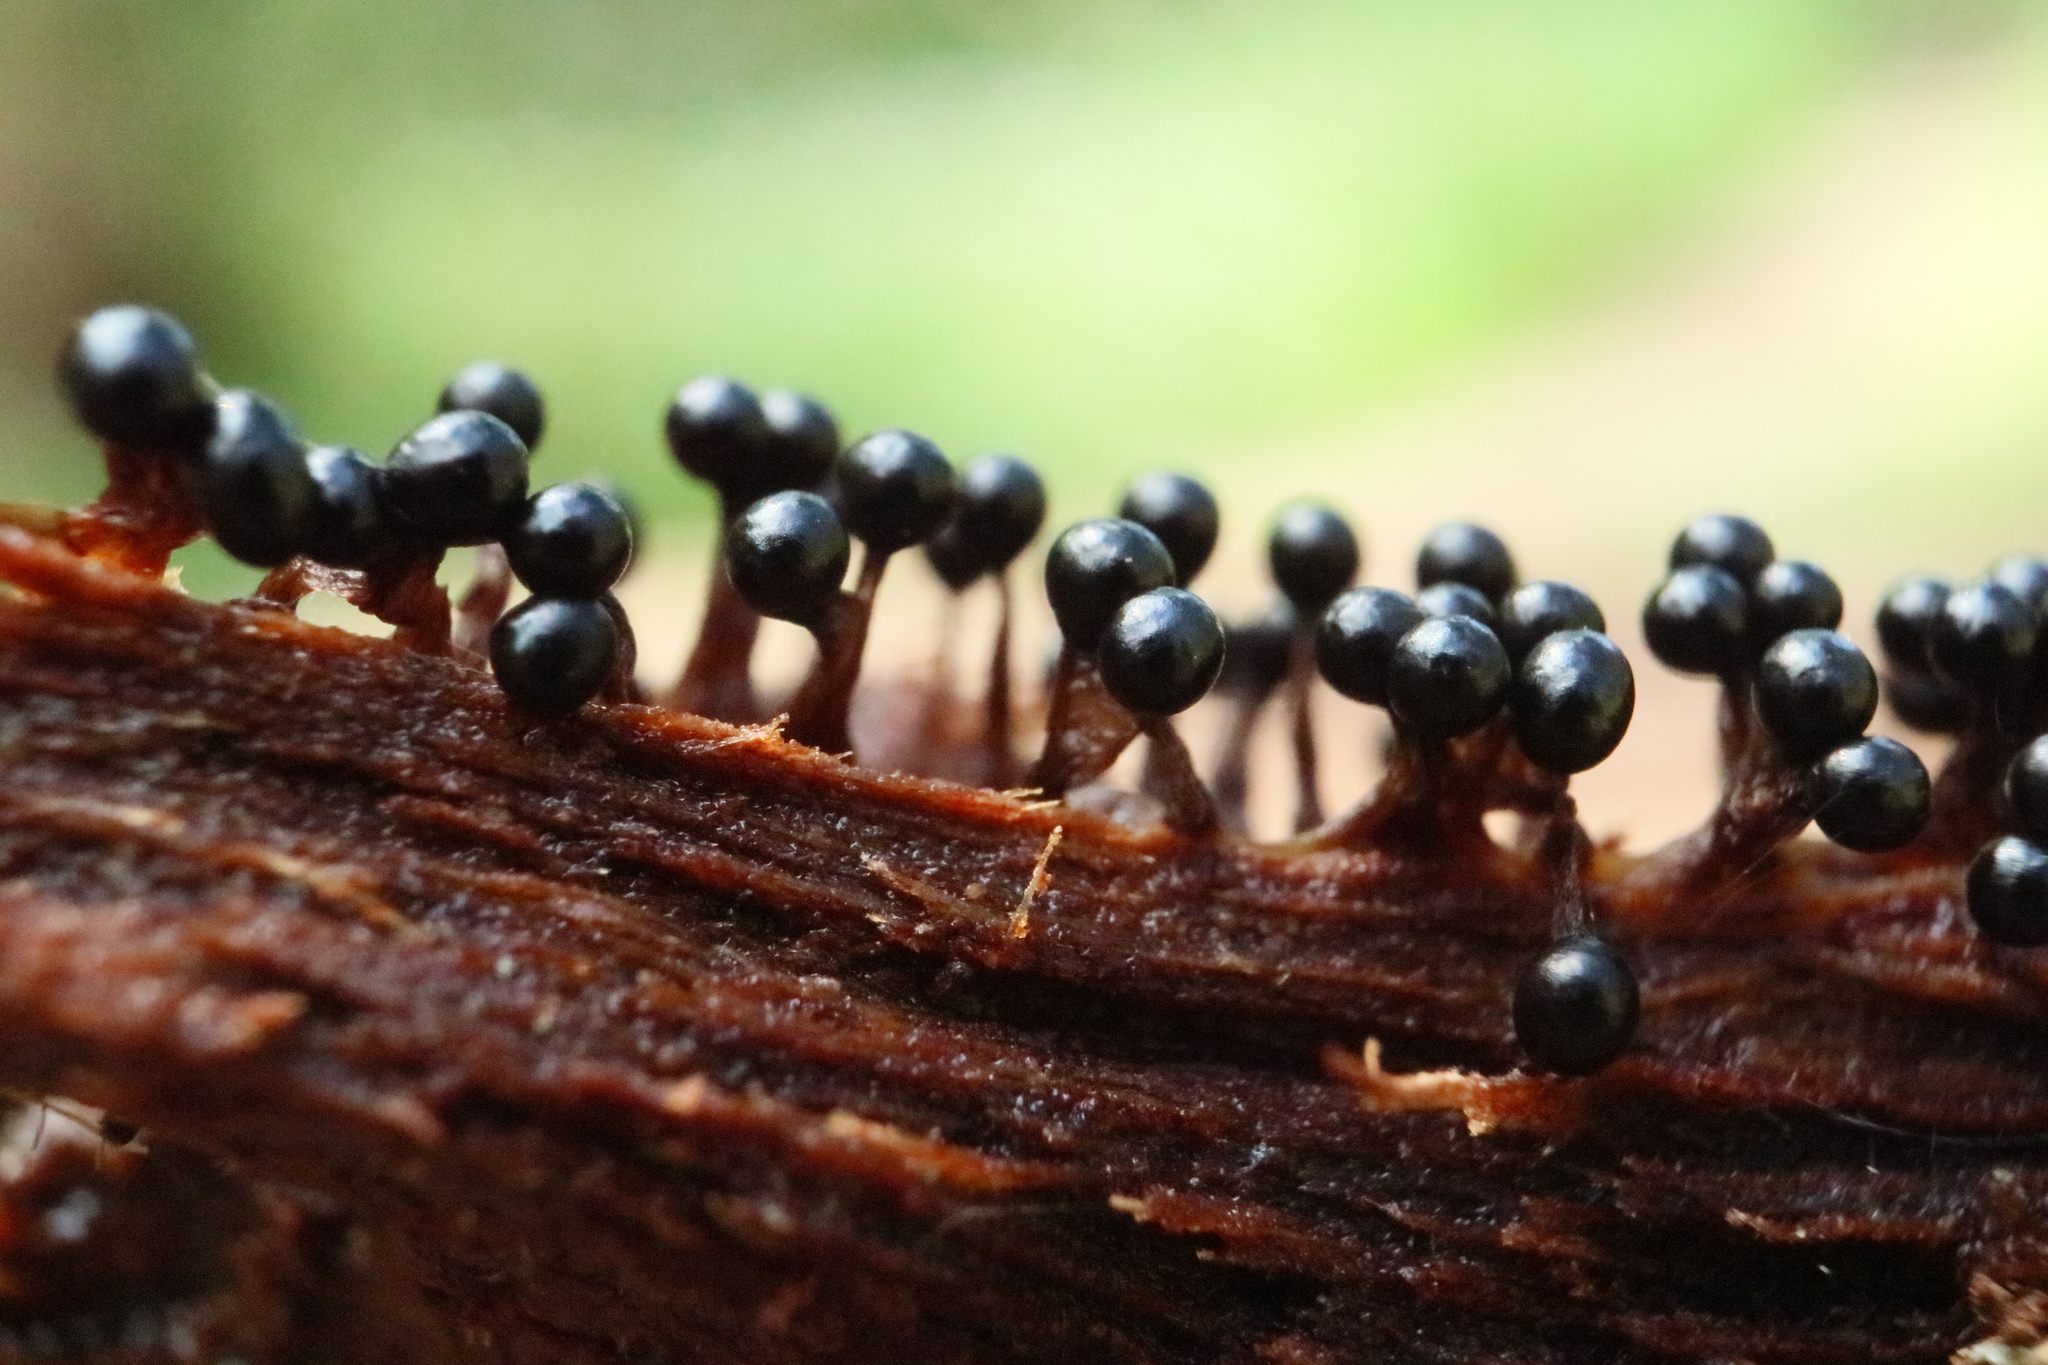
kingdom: Protozoa
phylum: Mycetozoa
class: Myxomycetes
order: Trichiales
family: Trichiaceae
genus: Metatrichia
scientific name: Metatrichia floriformis
